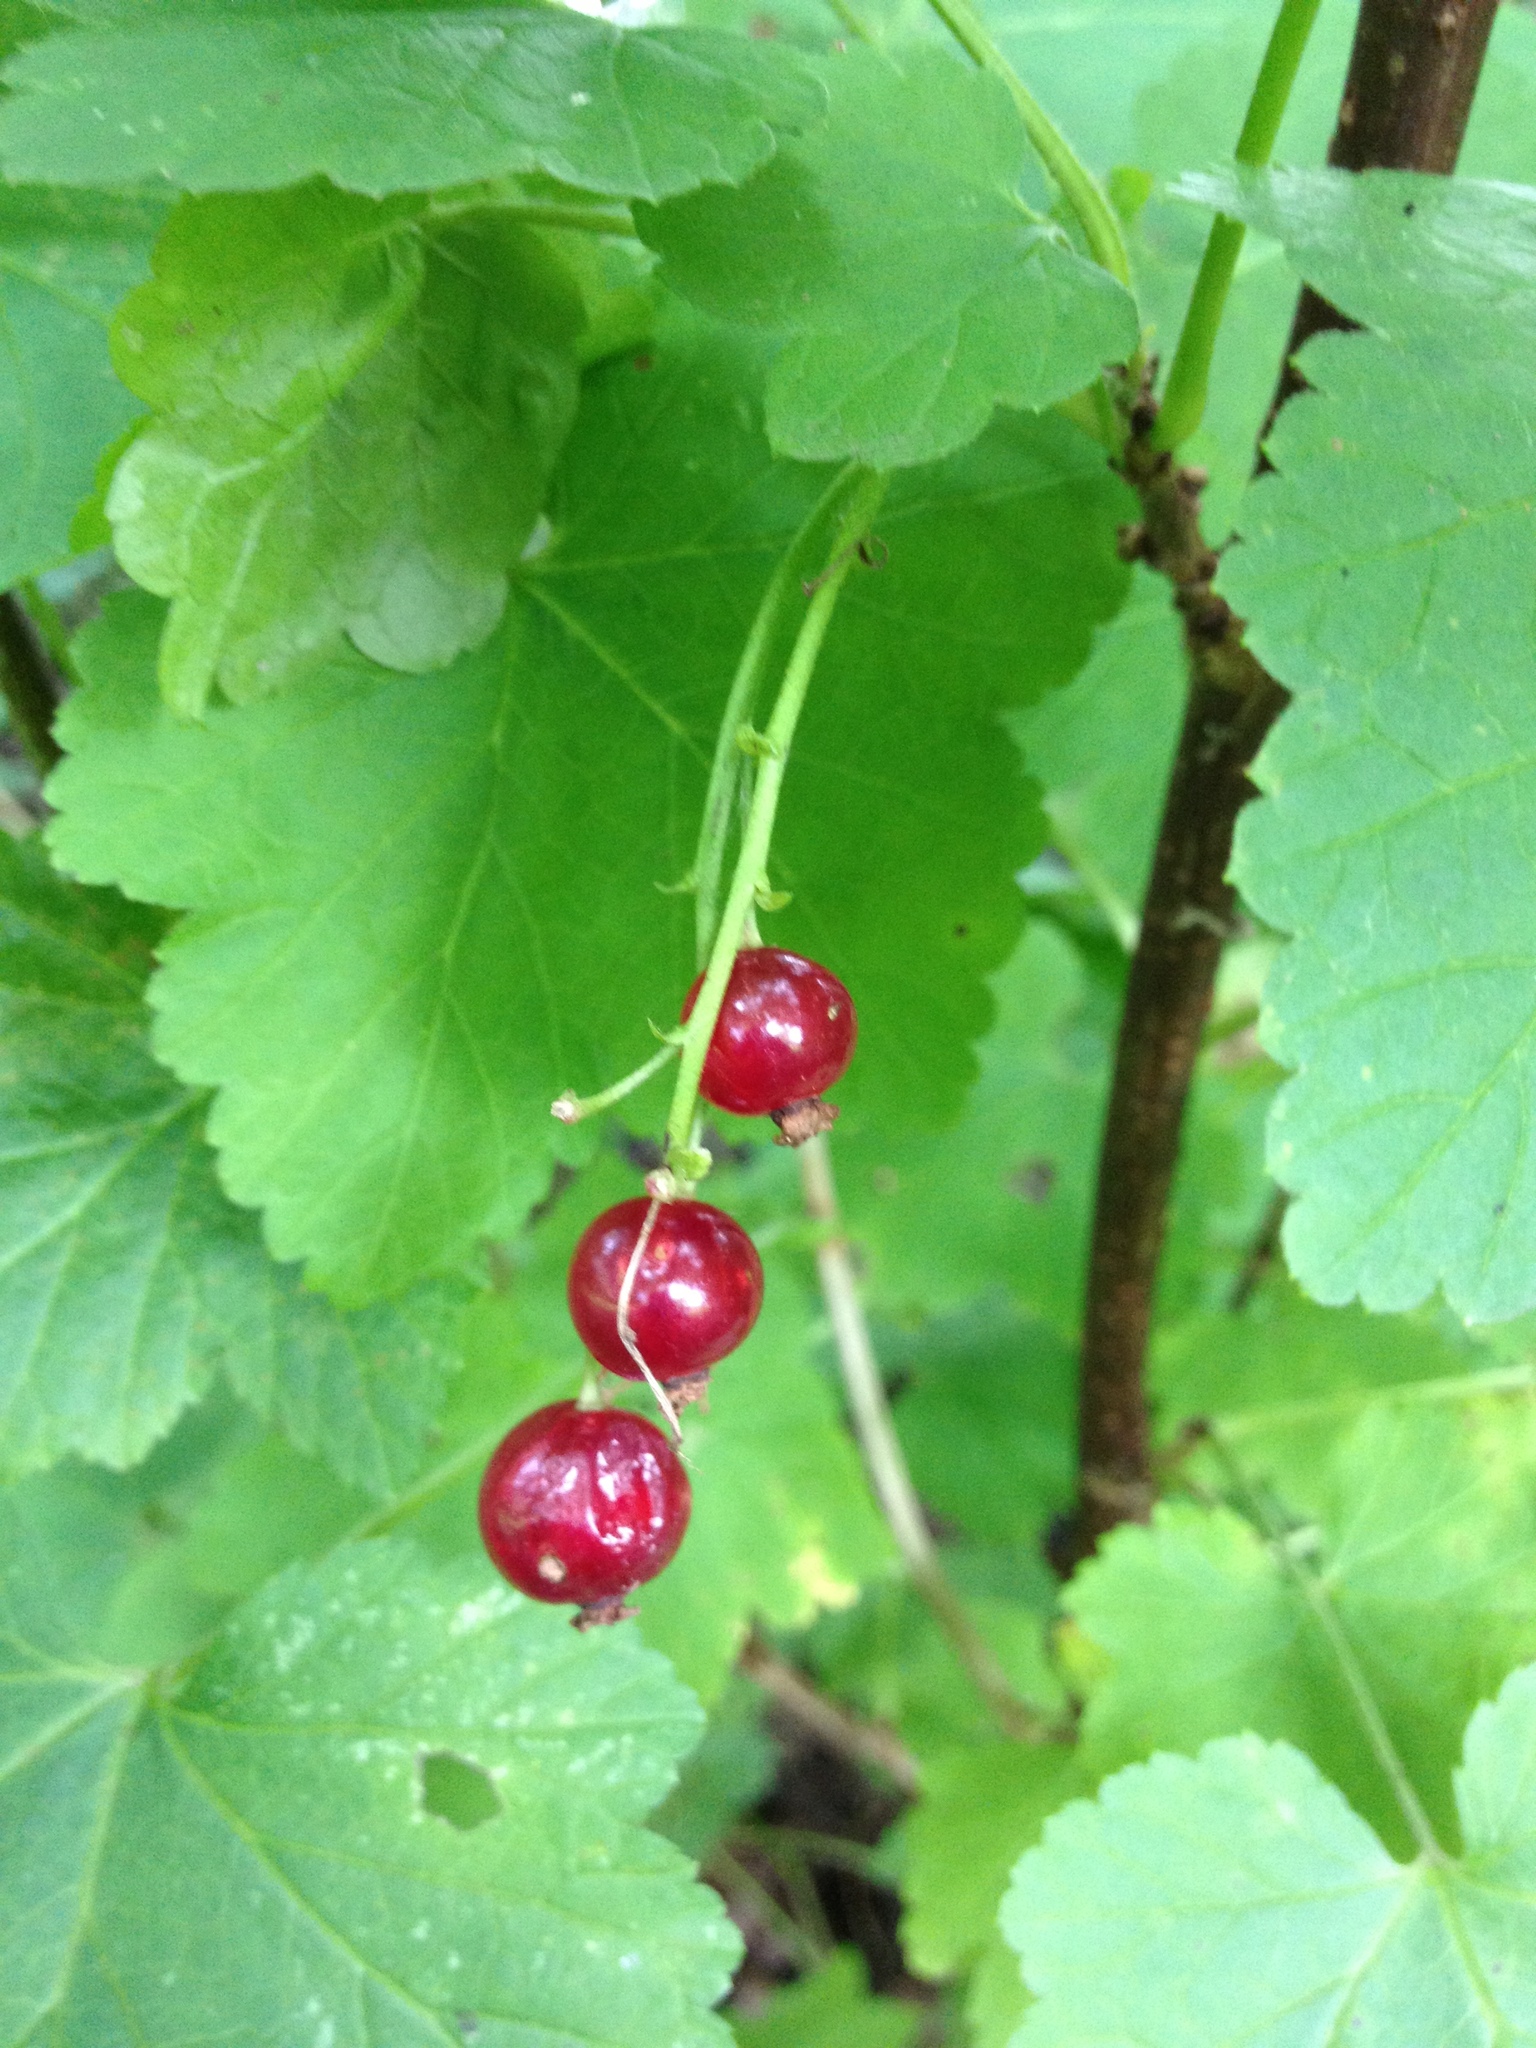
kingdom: Plantae
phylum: Tracheophyta
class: Magnoliopsida
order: Saxifragales
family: Grossulariaceae
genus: Ribes
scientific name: Ribes rubrum
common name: Red currant
